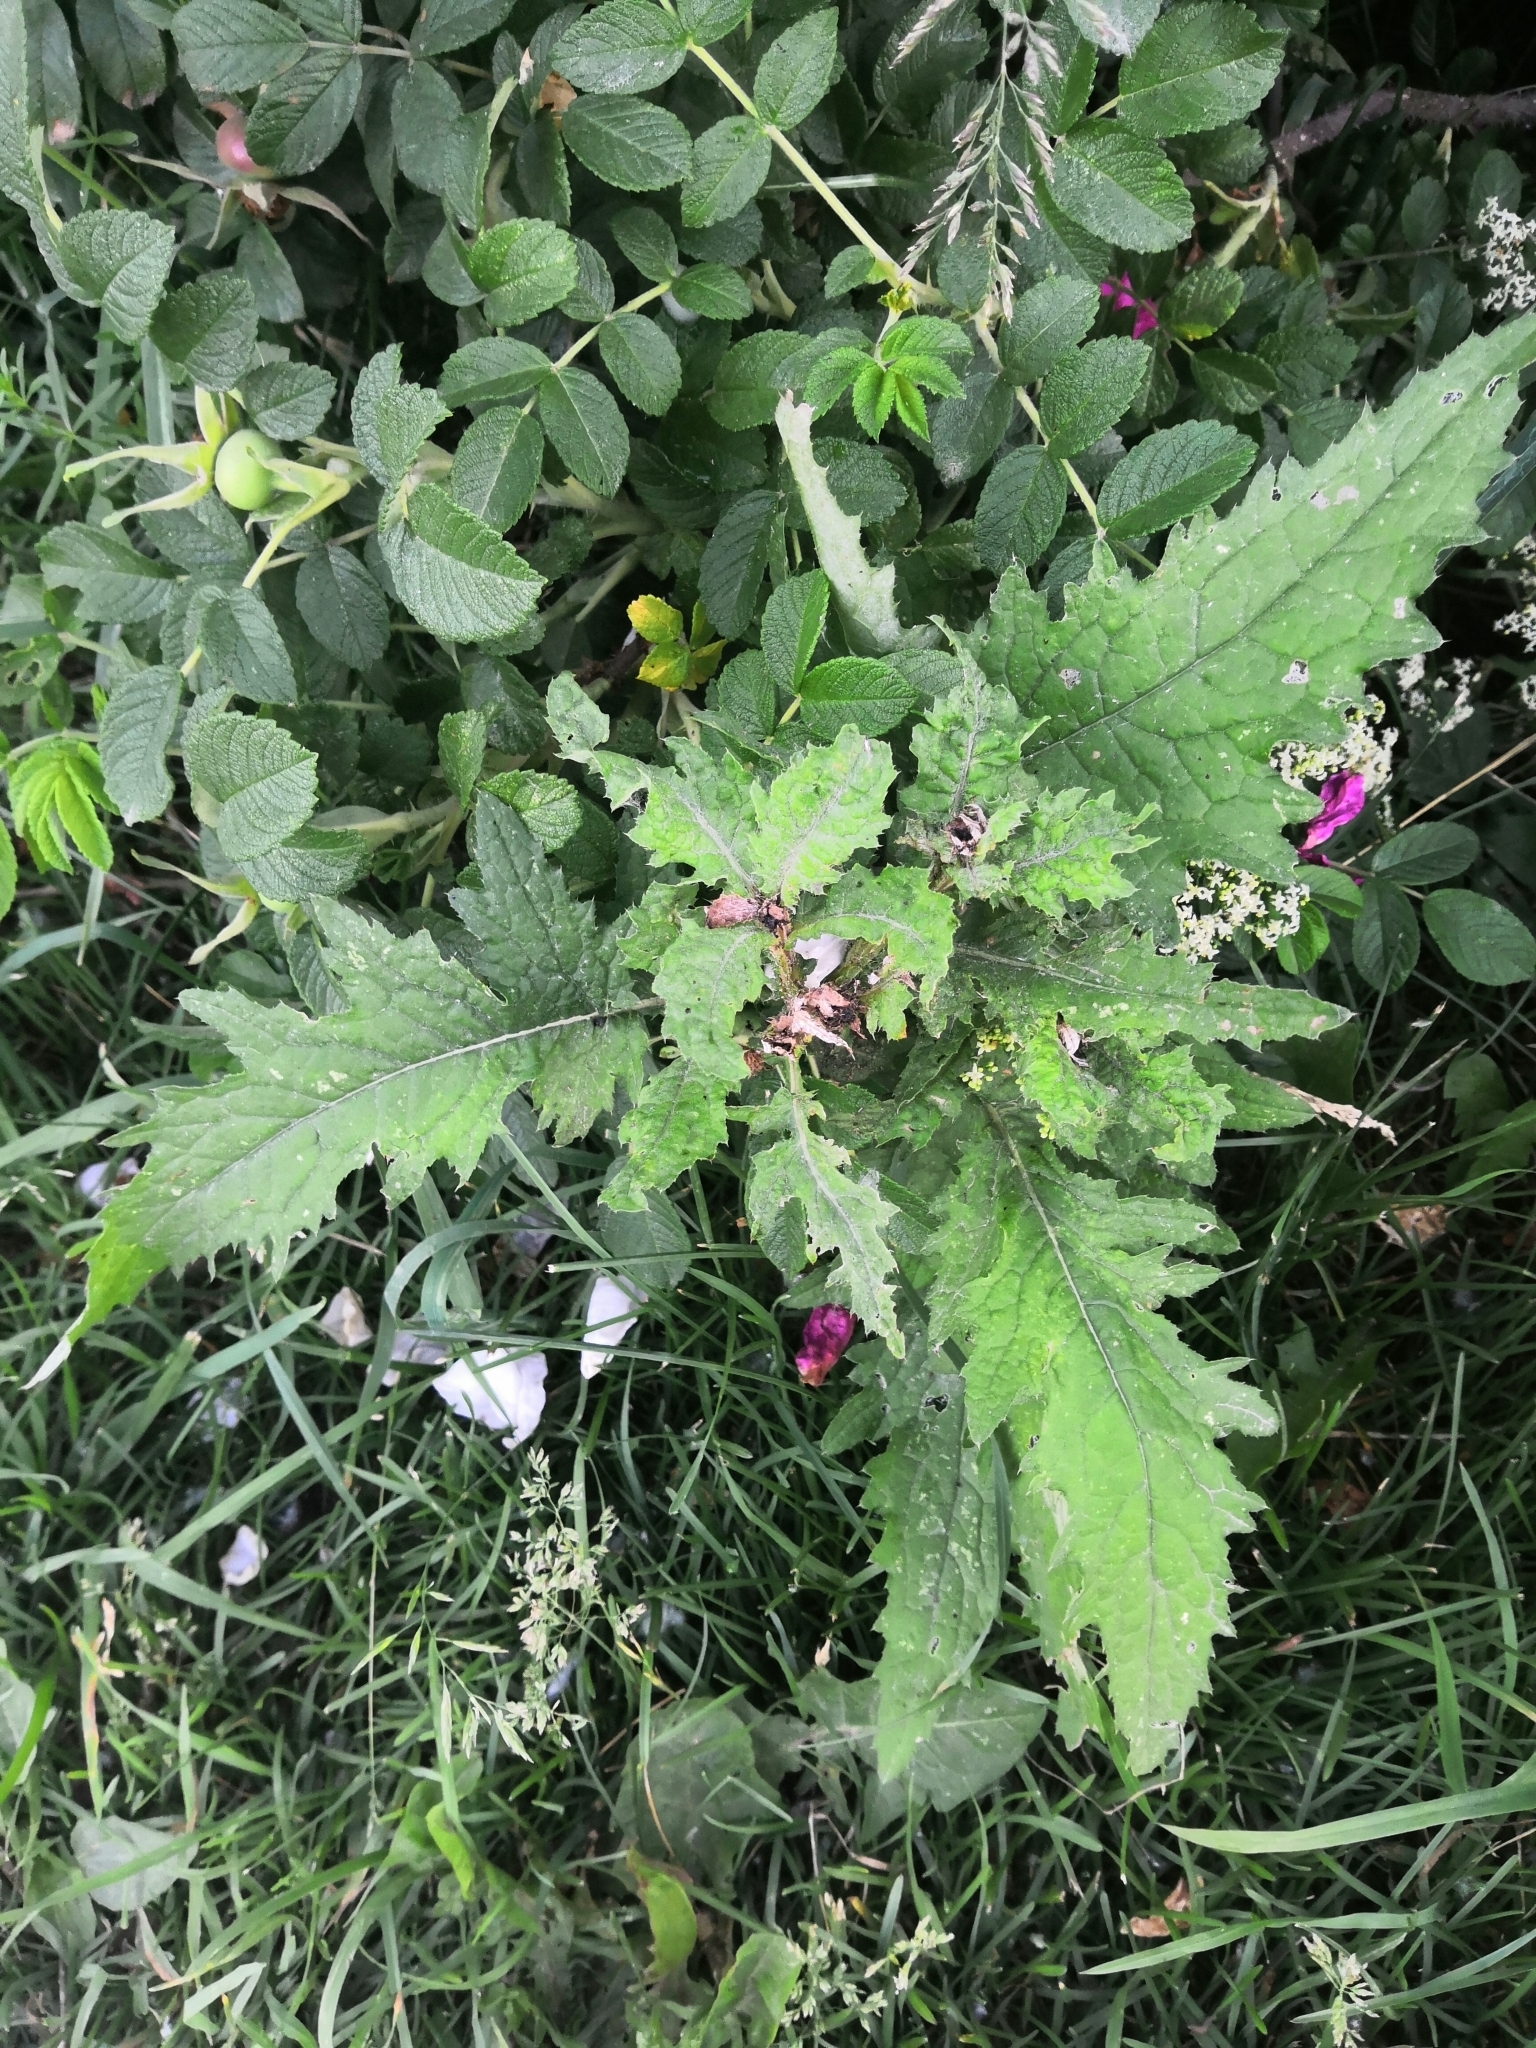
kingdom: Plantae
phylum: Tracheophyta
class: Magnoliopsida
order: Asterales
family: Asteraceae
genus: Carduus
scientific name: Carduus crispus
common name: Welted thistle
